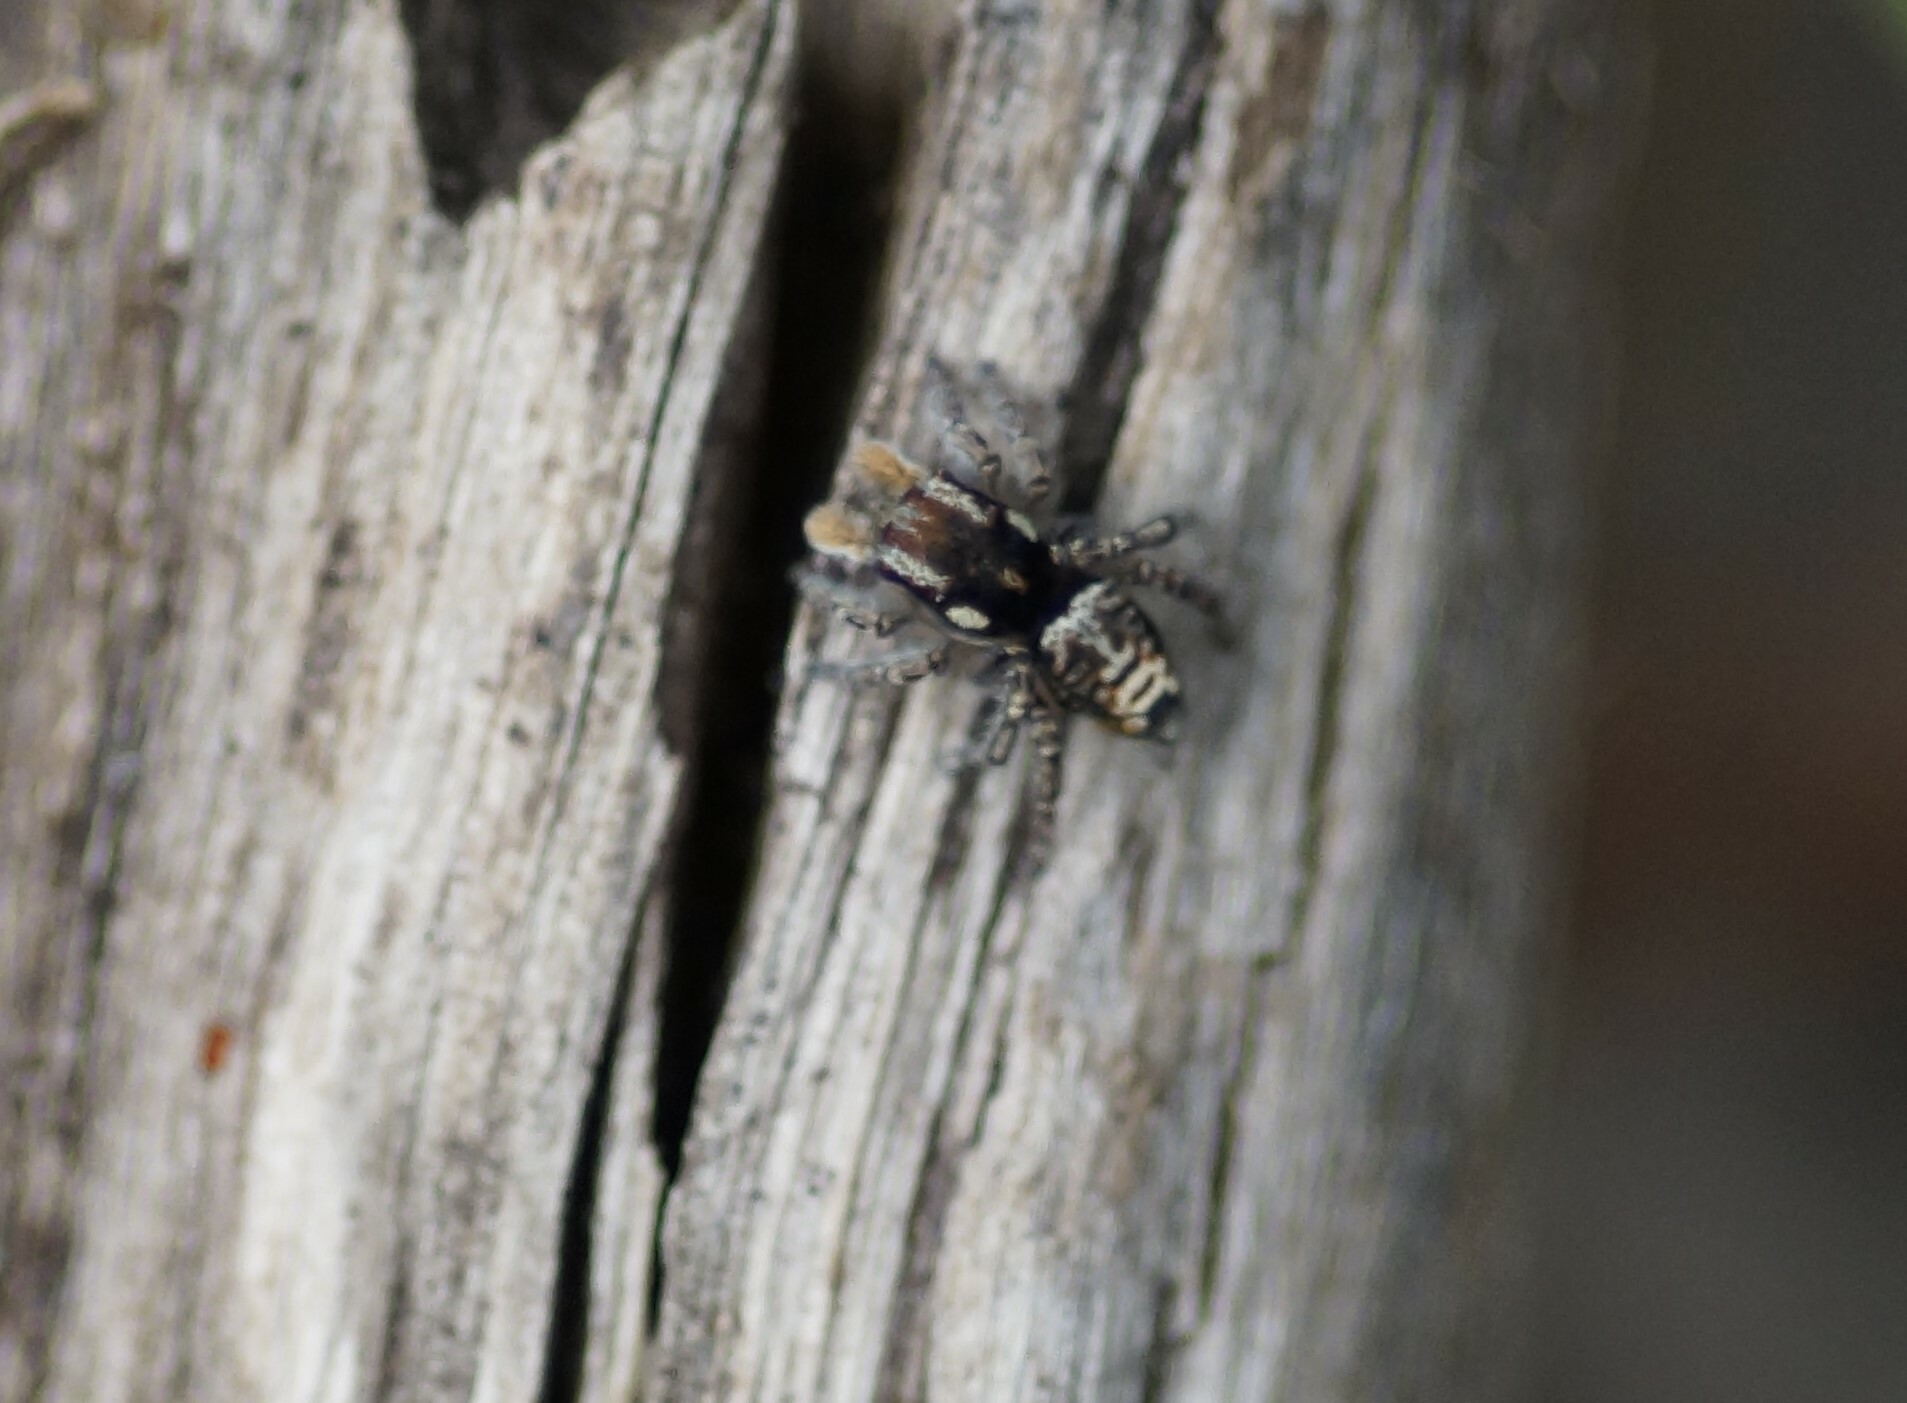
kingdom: Animalia
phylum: Arthropoda
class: Arachnida
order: Araneae
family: Salticidae
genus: Maratus
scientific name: Maratus plumosus
